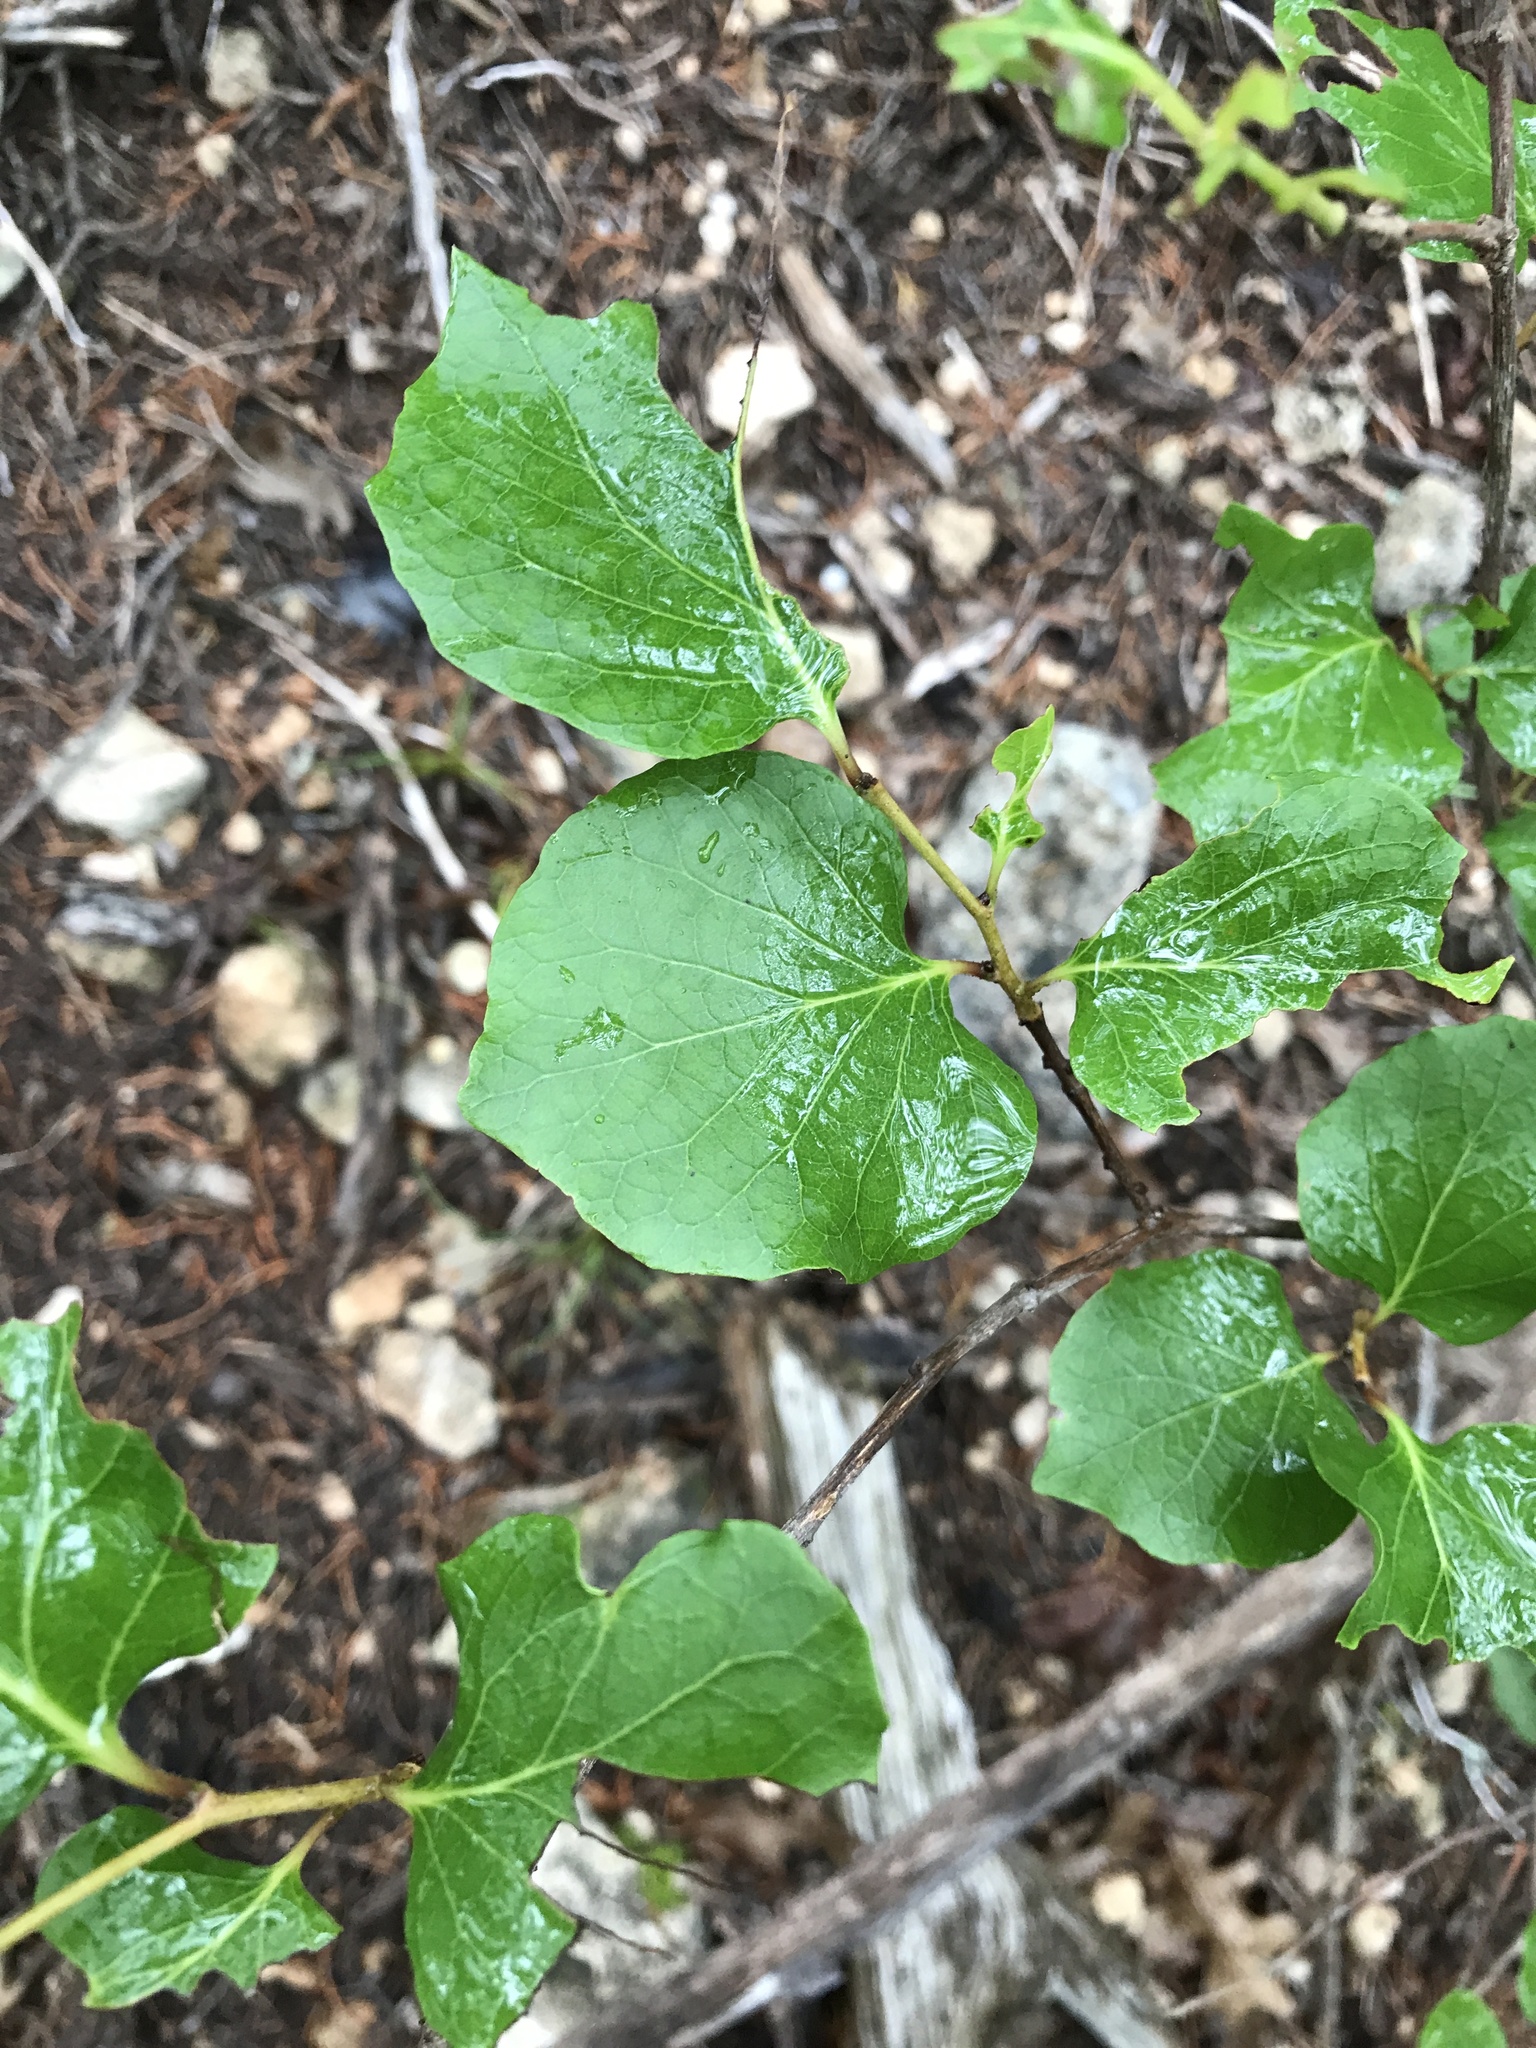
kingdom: Plantae
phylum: Tracheophyta
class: Magnoliopsida
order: Ericales
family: Styracaceae
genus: Styrax
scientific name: Styrax platanifolius
